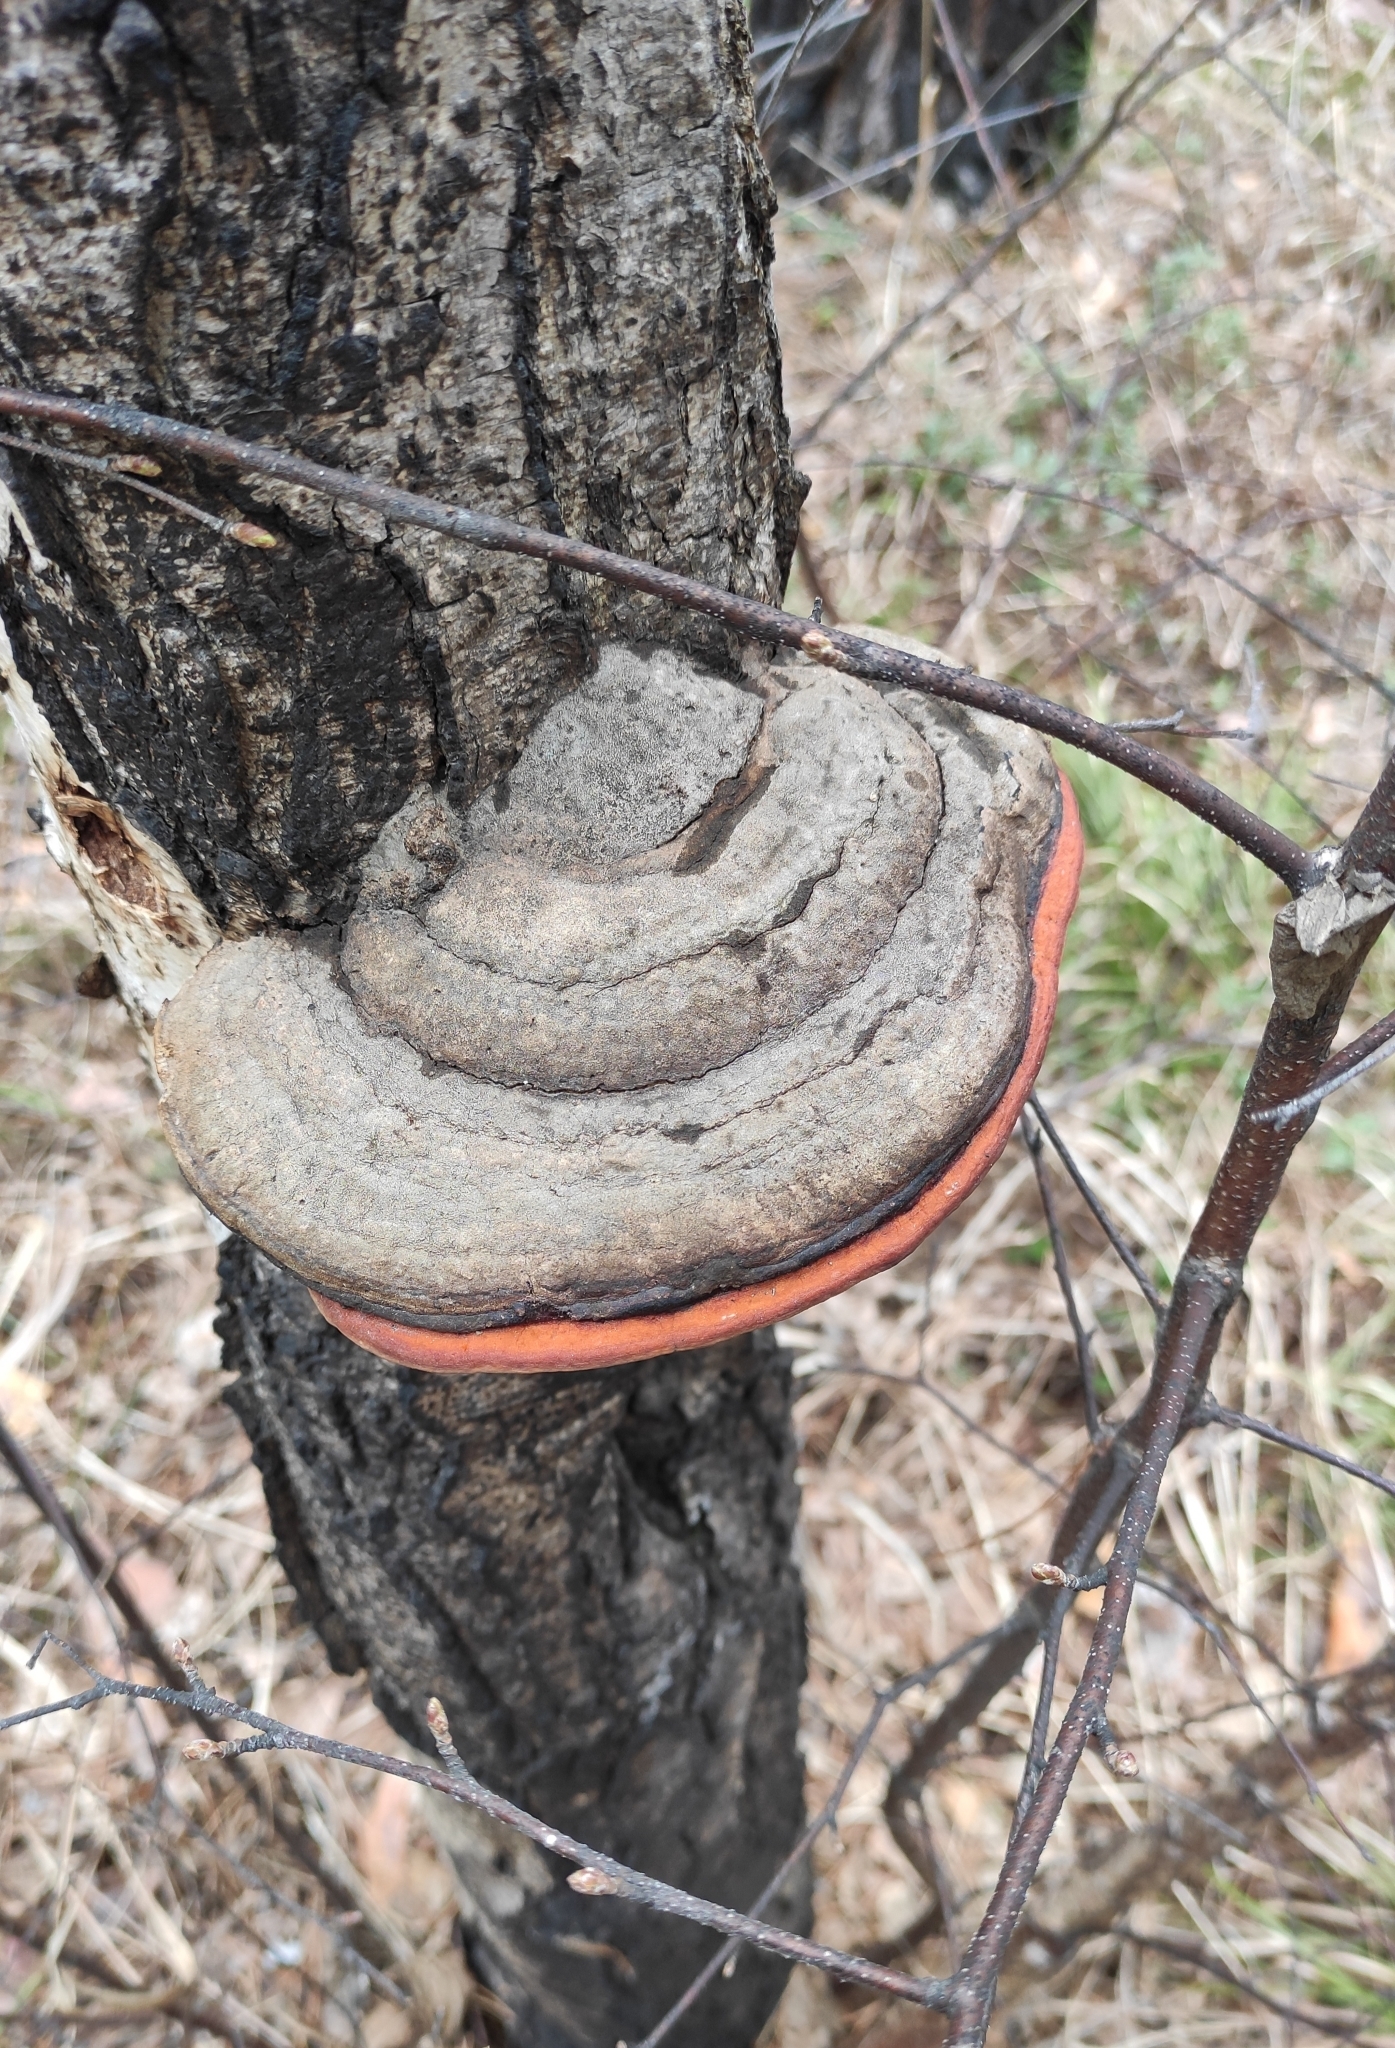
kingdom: Fungi
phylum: Basidiomycota
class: Agaricomycetes
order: Polyporales
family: Fomitopsidaceae
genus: Fomitopsis
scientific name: Fomitopsis pinicola
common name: Red-belted bracket
